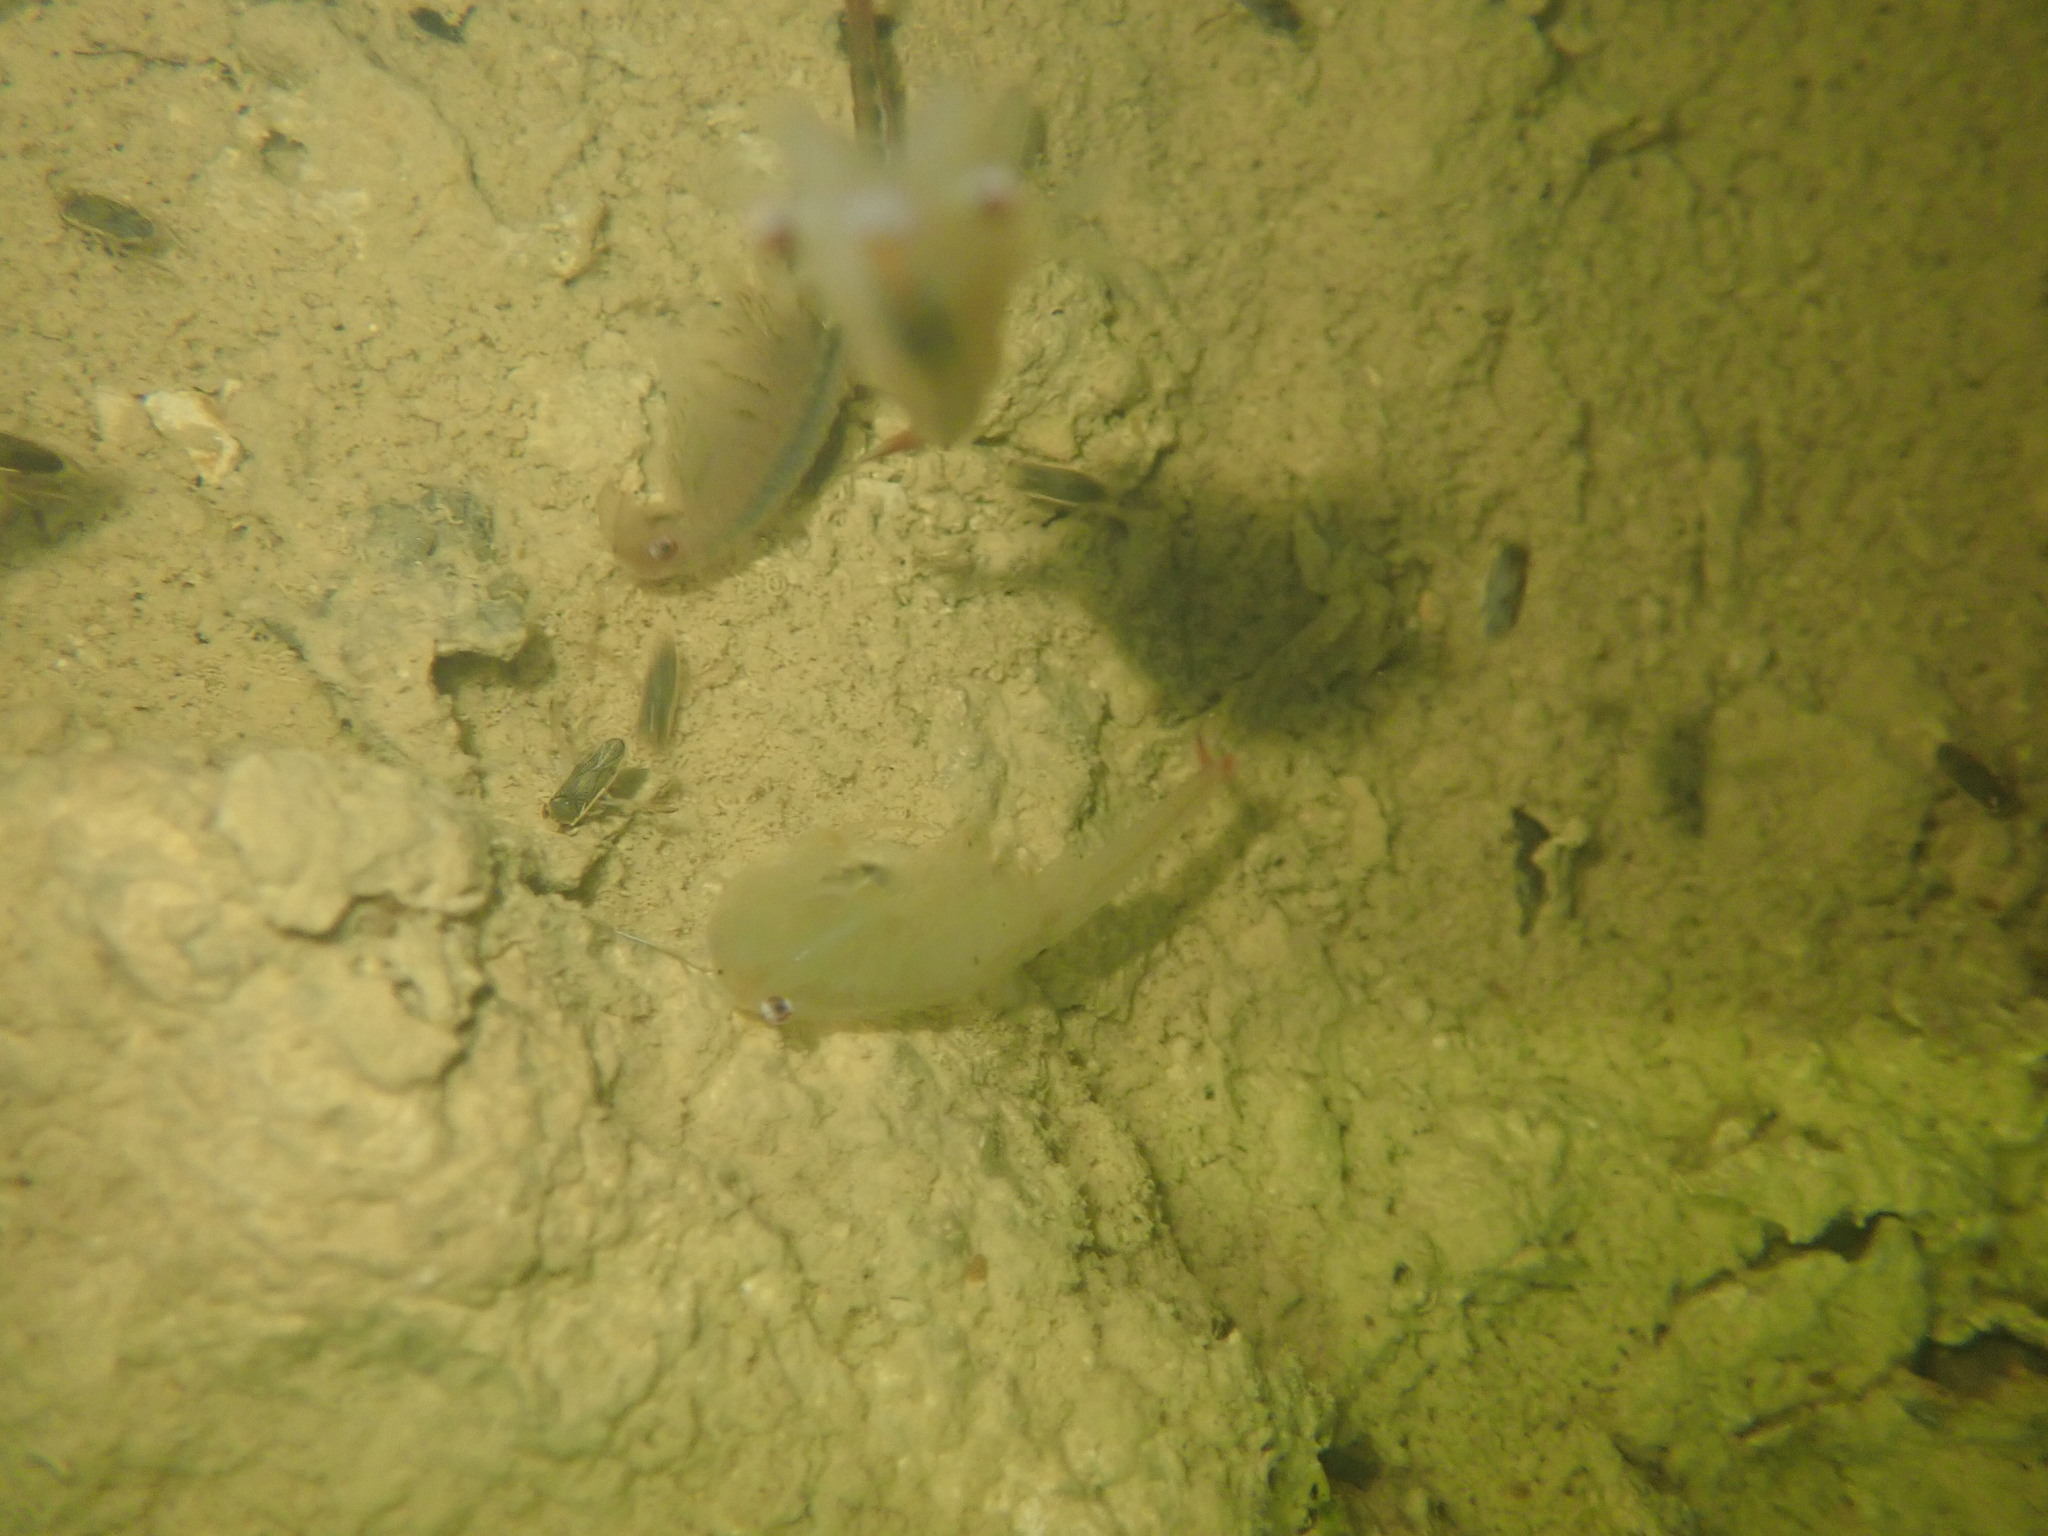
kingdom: Animalia
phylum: Arthropoda
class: Branchiopoda
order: Anostraca
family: Chirocephalidae
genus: Chirocephalus
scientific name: Chirocephalus diaphanus
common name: Fairy shrimp
